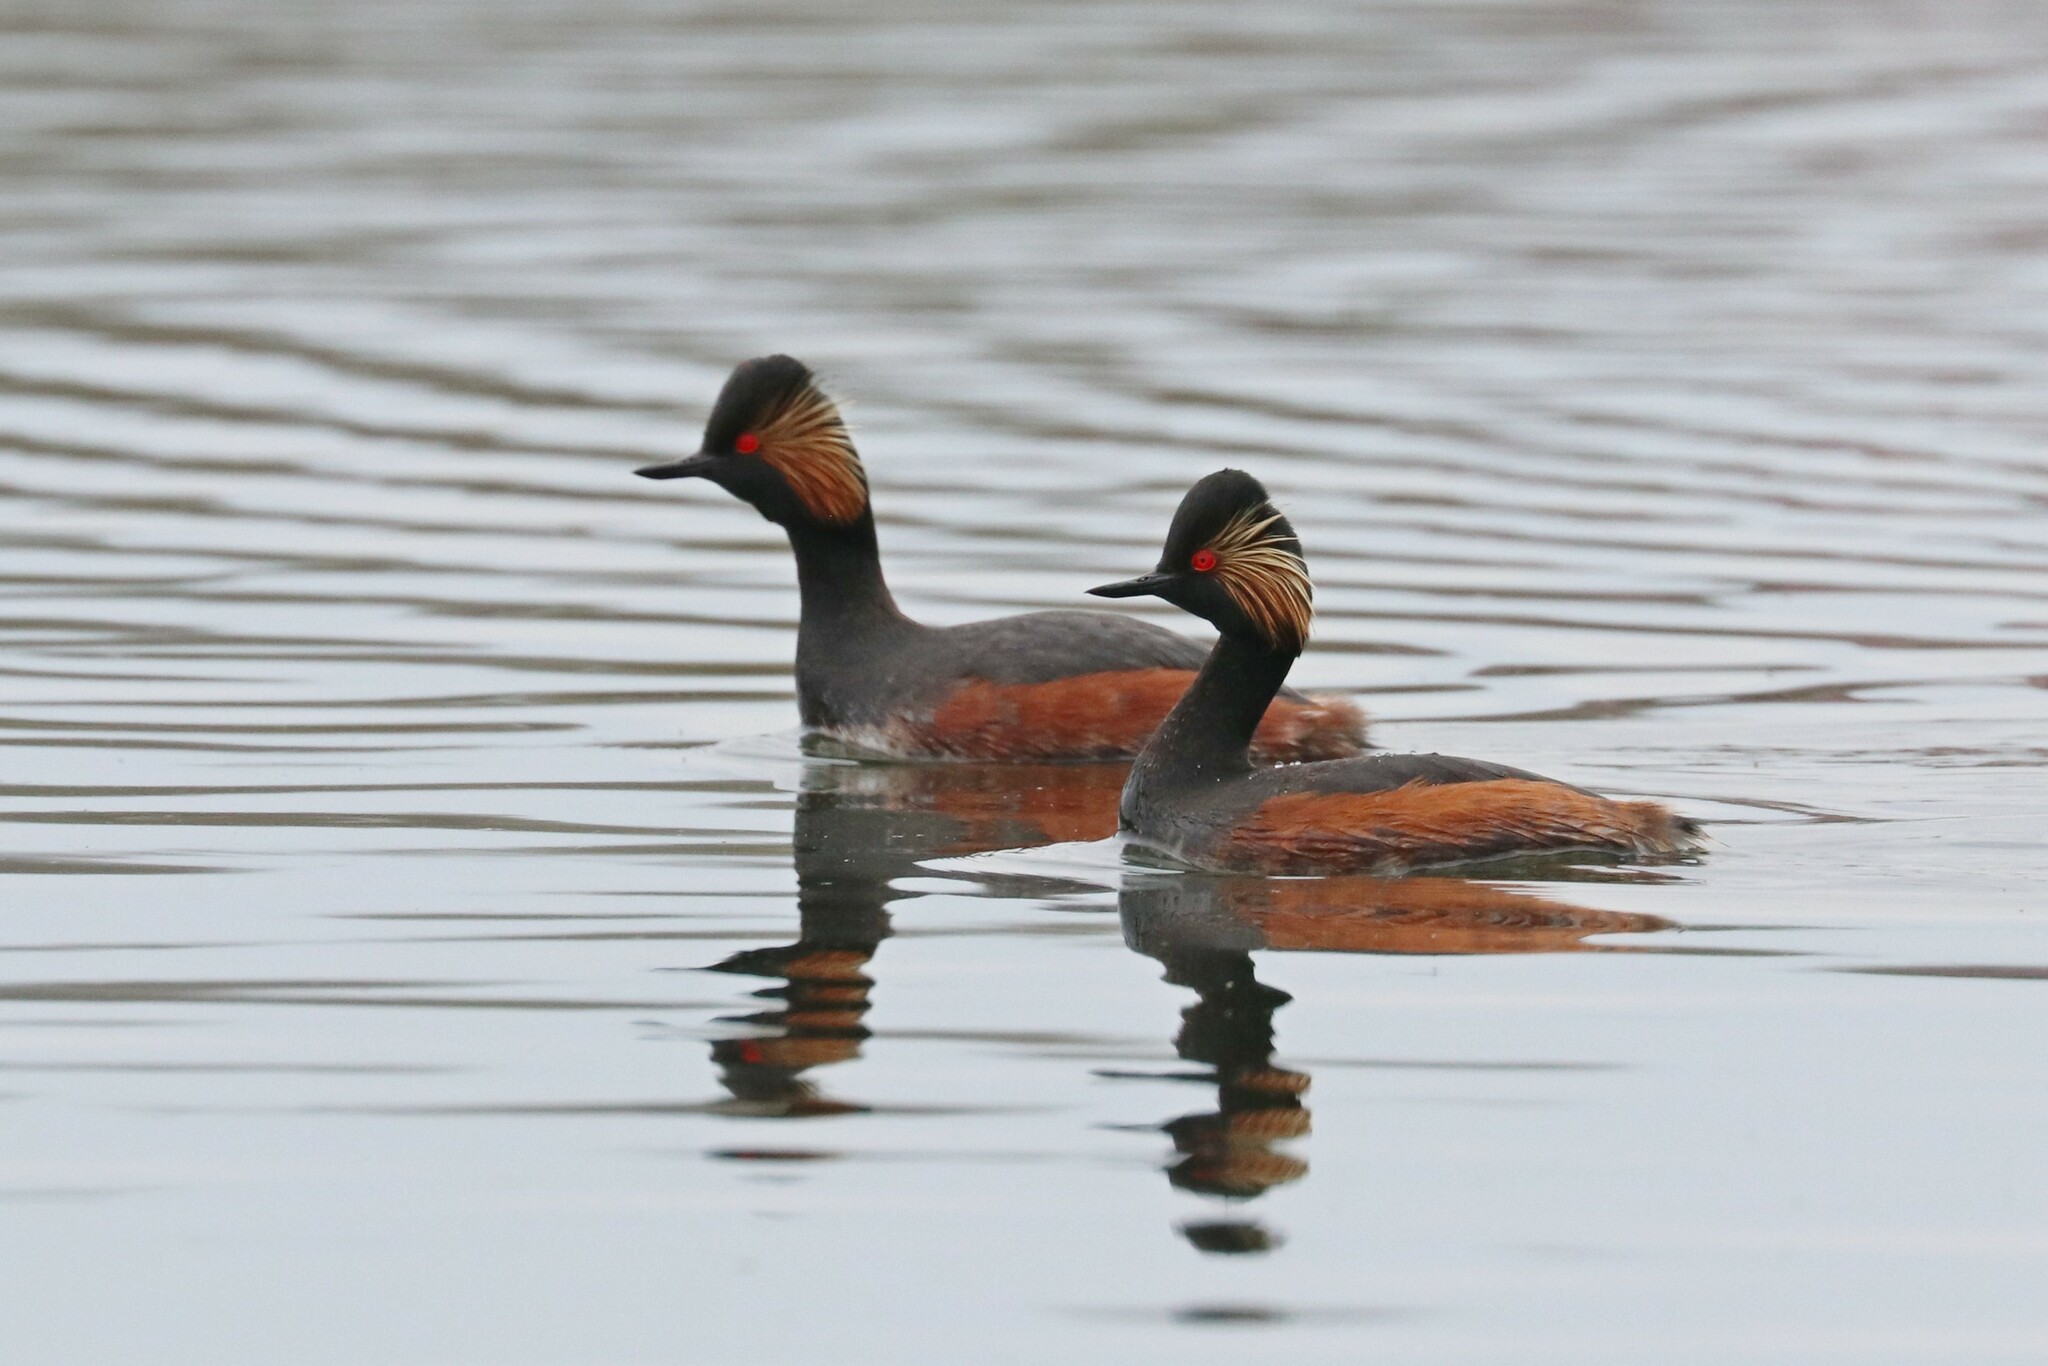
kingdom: Animalia
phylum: Chordata
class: Aves
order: Podicipediformes
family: Podicipedidae
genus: Podiceps
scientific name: Podiceps nigricollis
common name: Black-necked grebe
